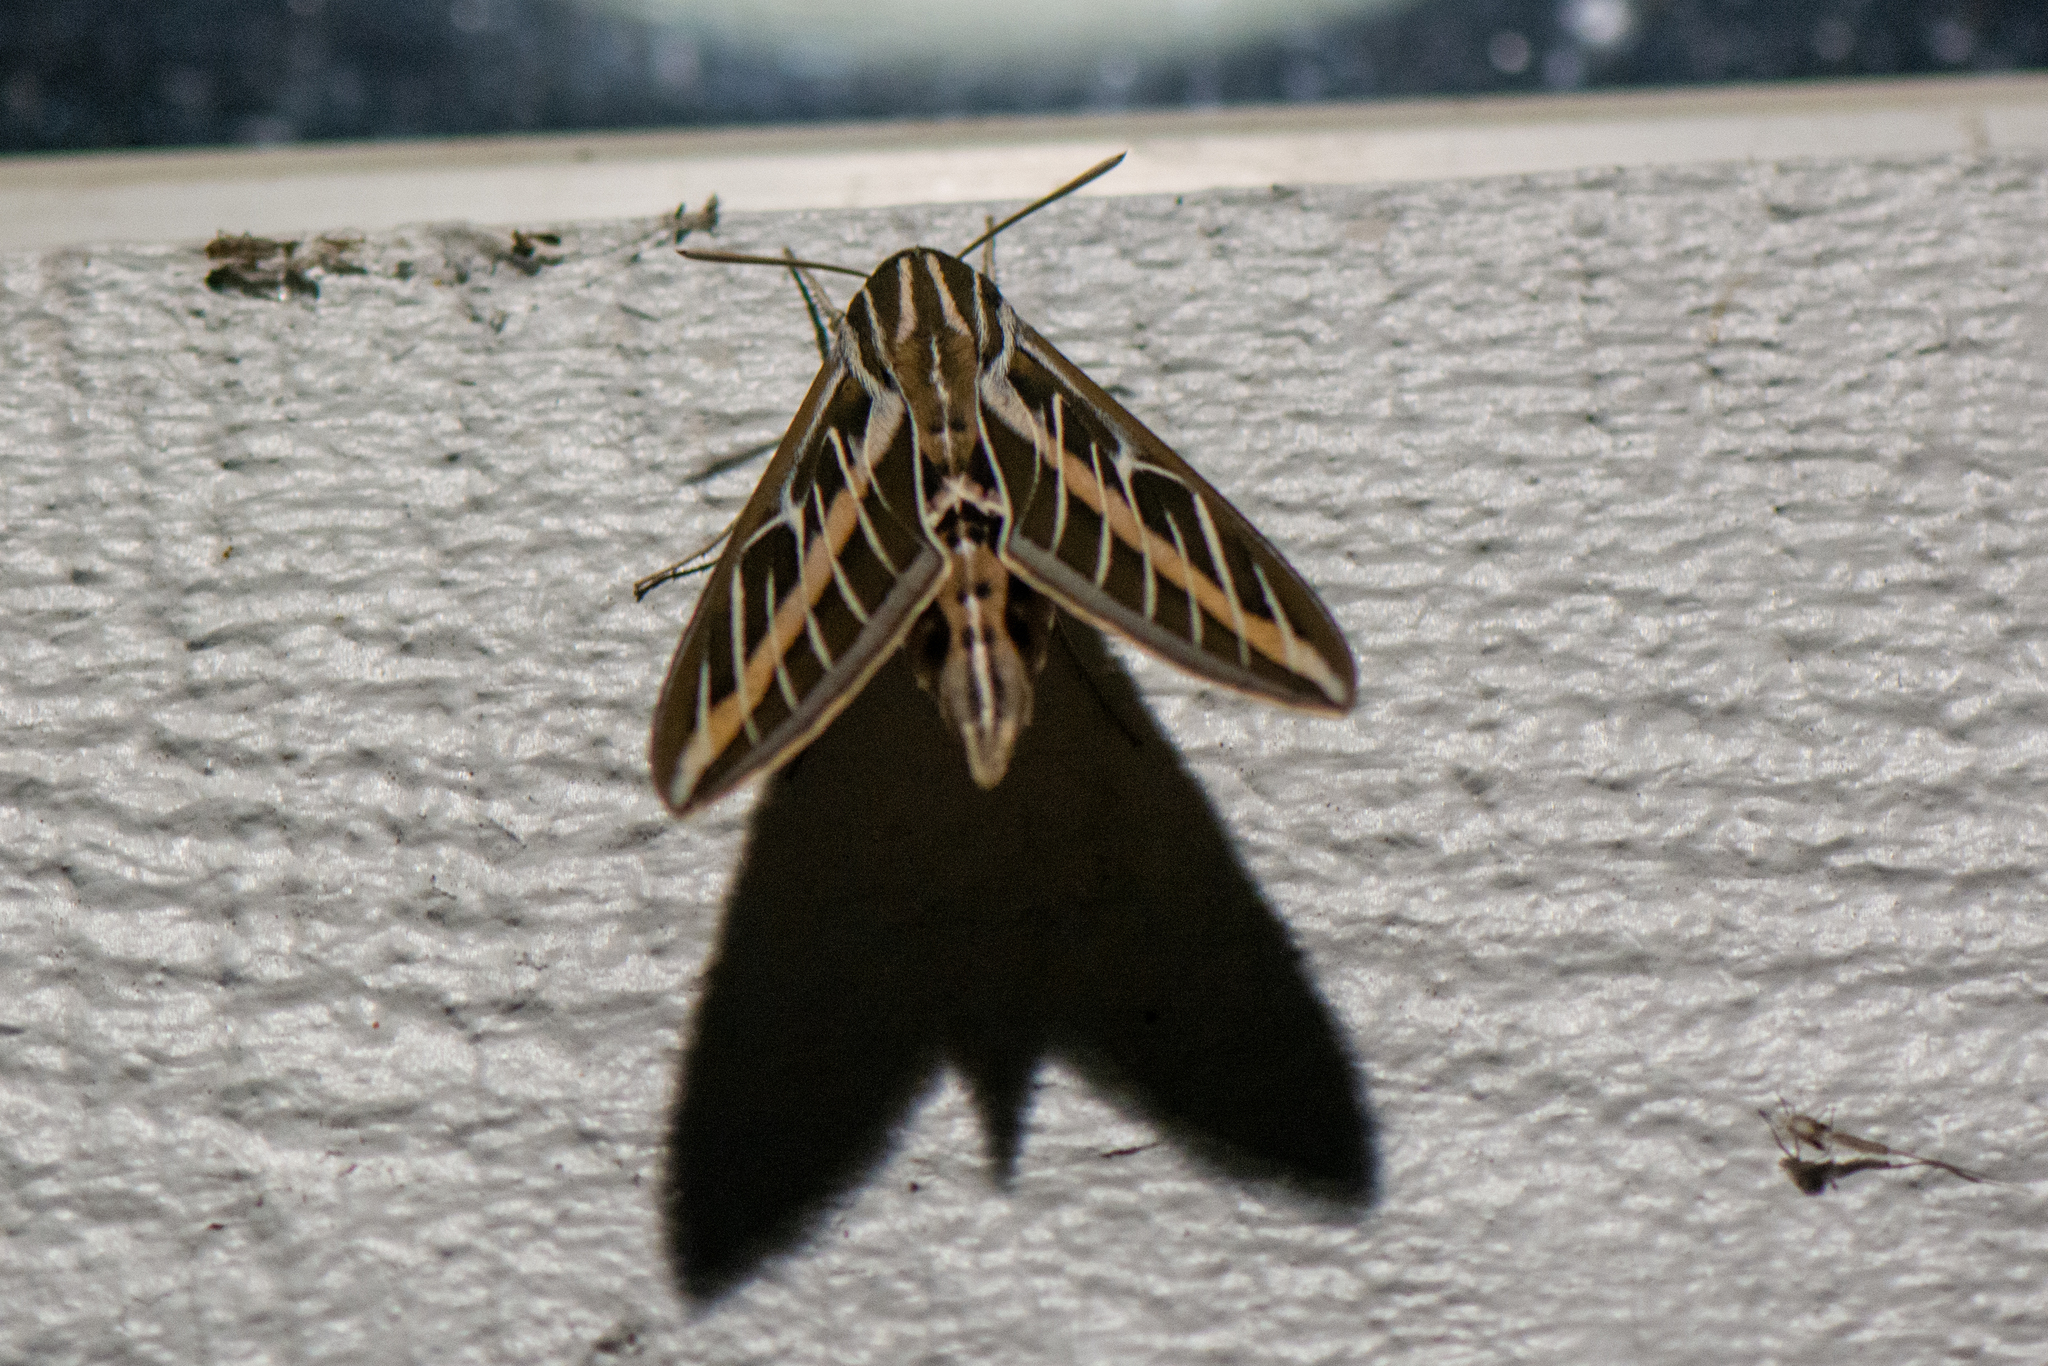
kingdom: Animalia
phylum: Arthropoda
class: Insecta
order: Lepidoptera
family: Sphingidae
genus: Hyles
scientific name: Hyles lineata
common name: White-lined sphinx
